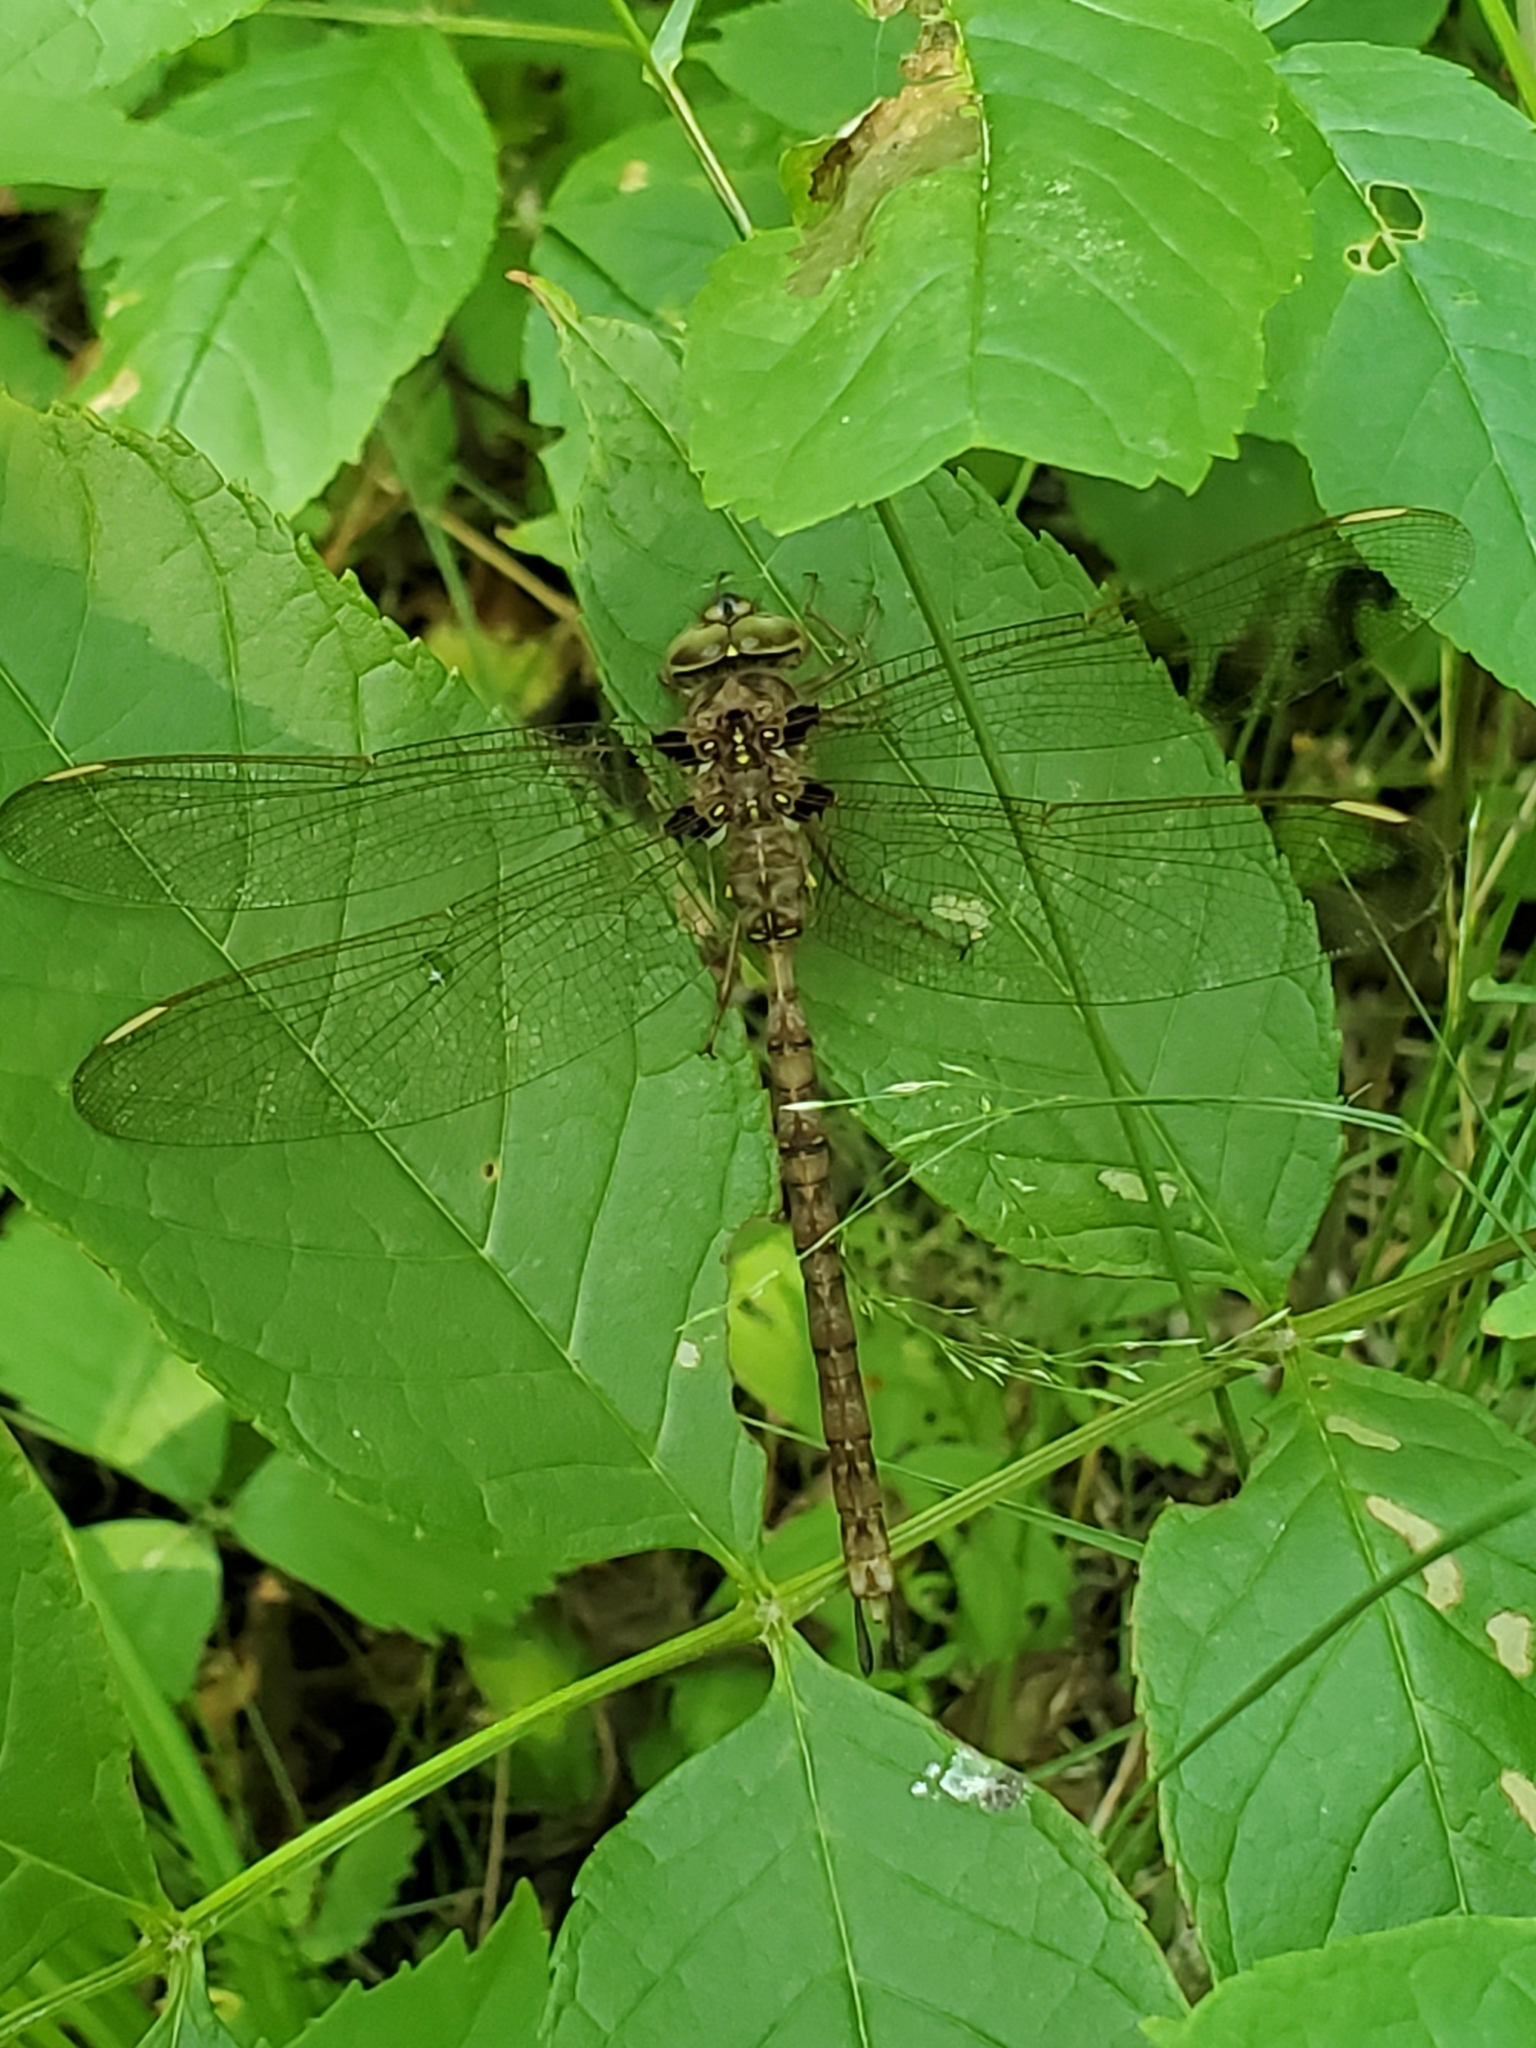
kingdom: Animalia
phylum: Arthropoda
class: Insecta
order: Odonata
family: Aeshnidae
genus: Boyeria
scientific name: Boyeria vinosa
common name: Fawn darner
